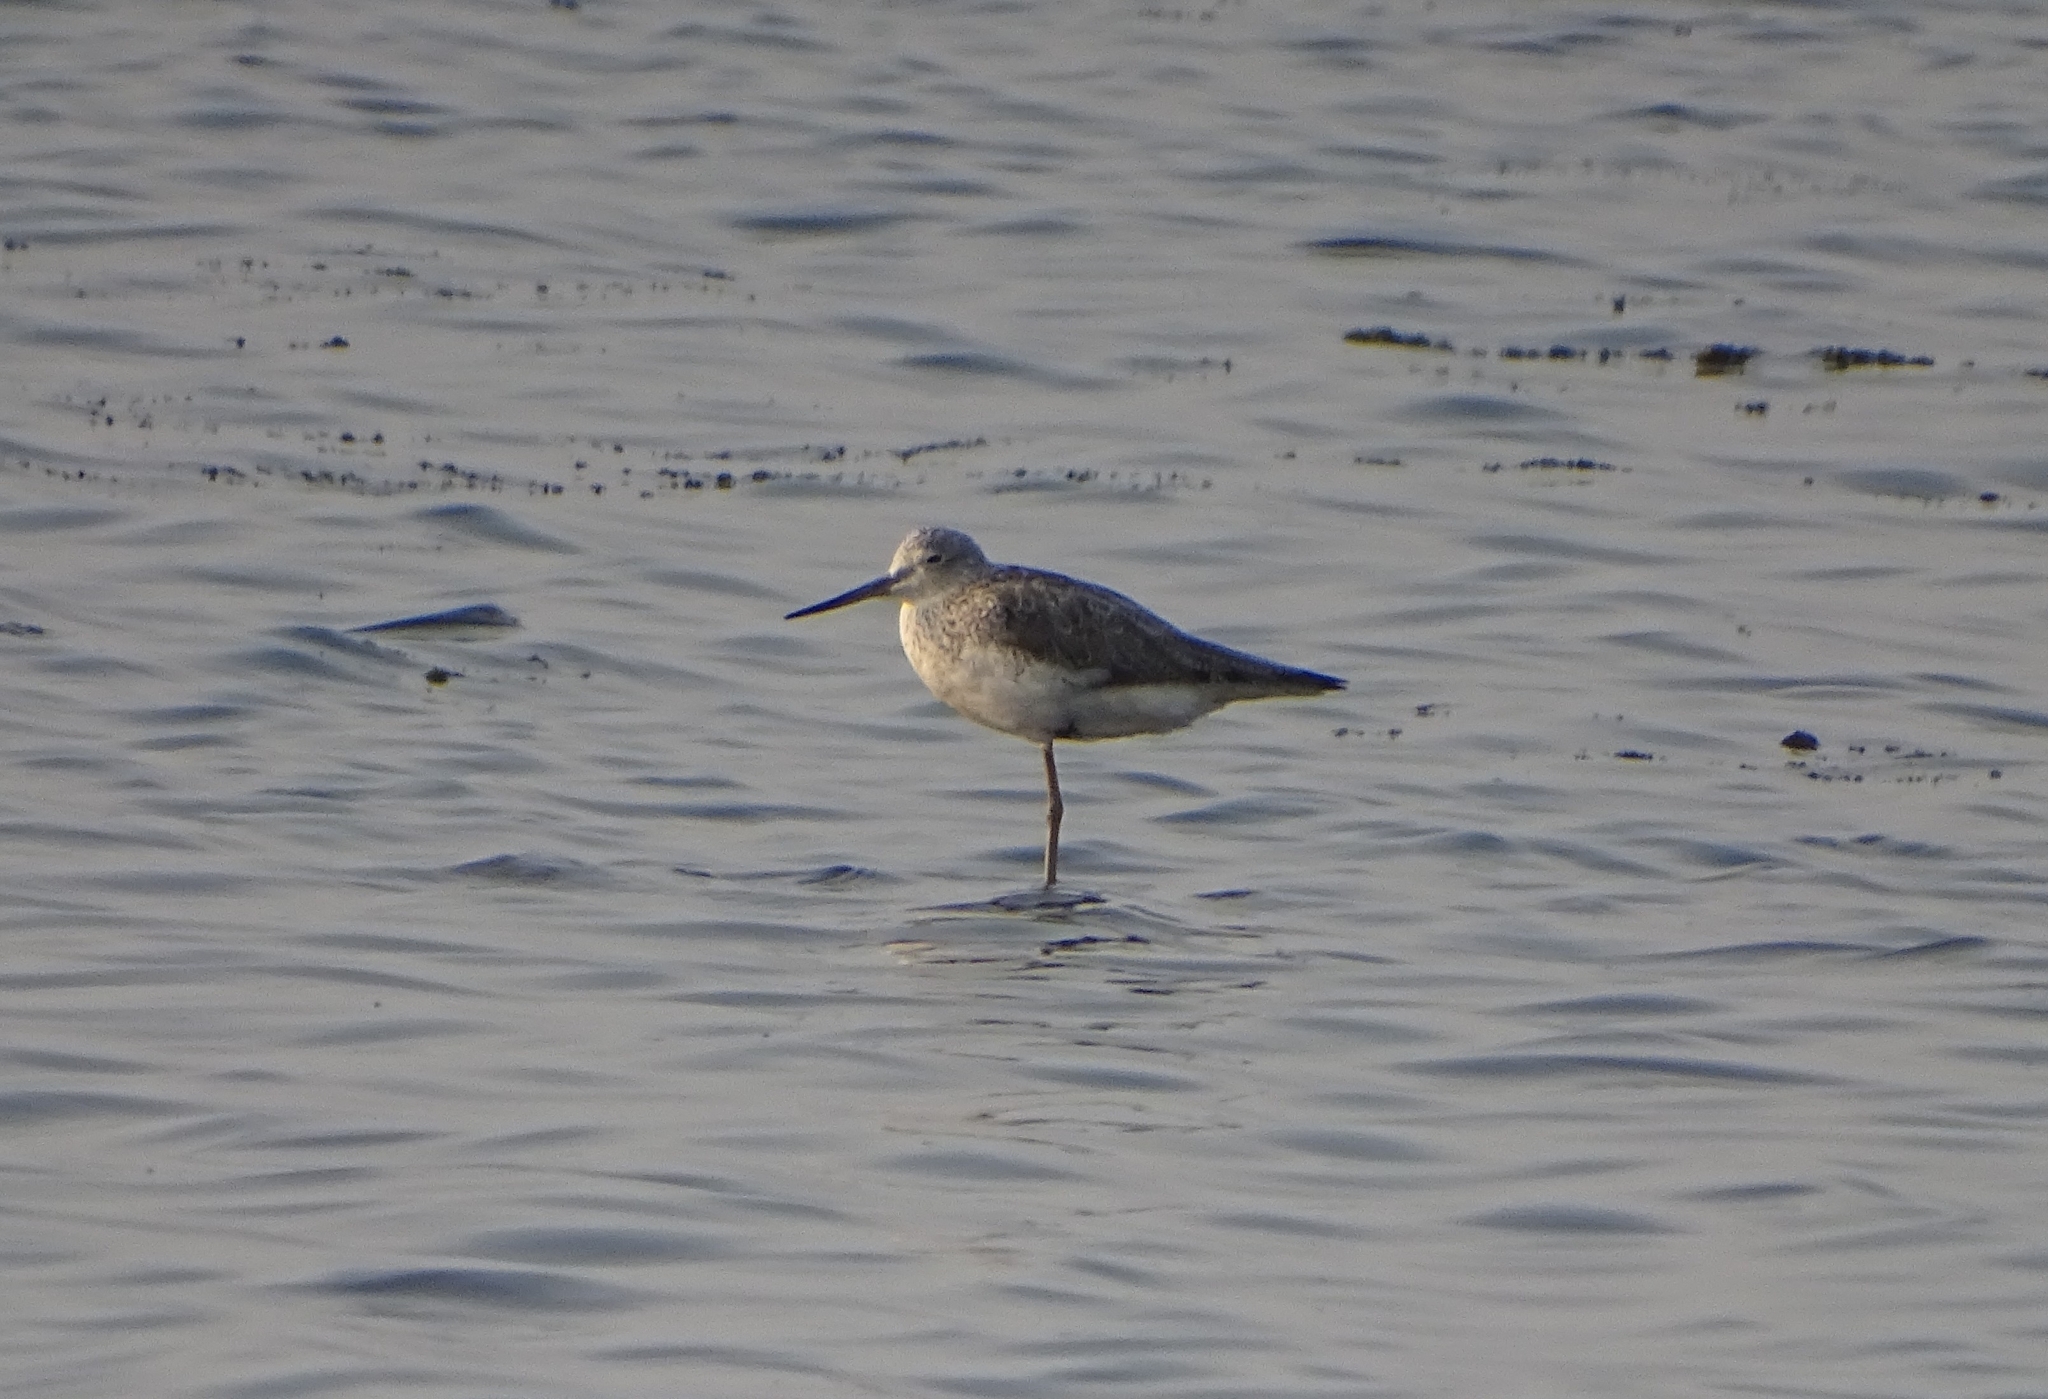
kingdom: Animalia
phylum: Chordata
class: Aves
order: Charadriiformes
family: Scolopacidae
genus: Tringa
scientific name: Tringa nebularia
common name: Common greenshank
